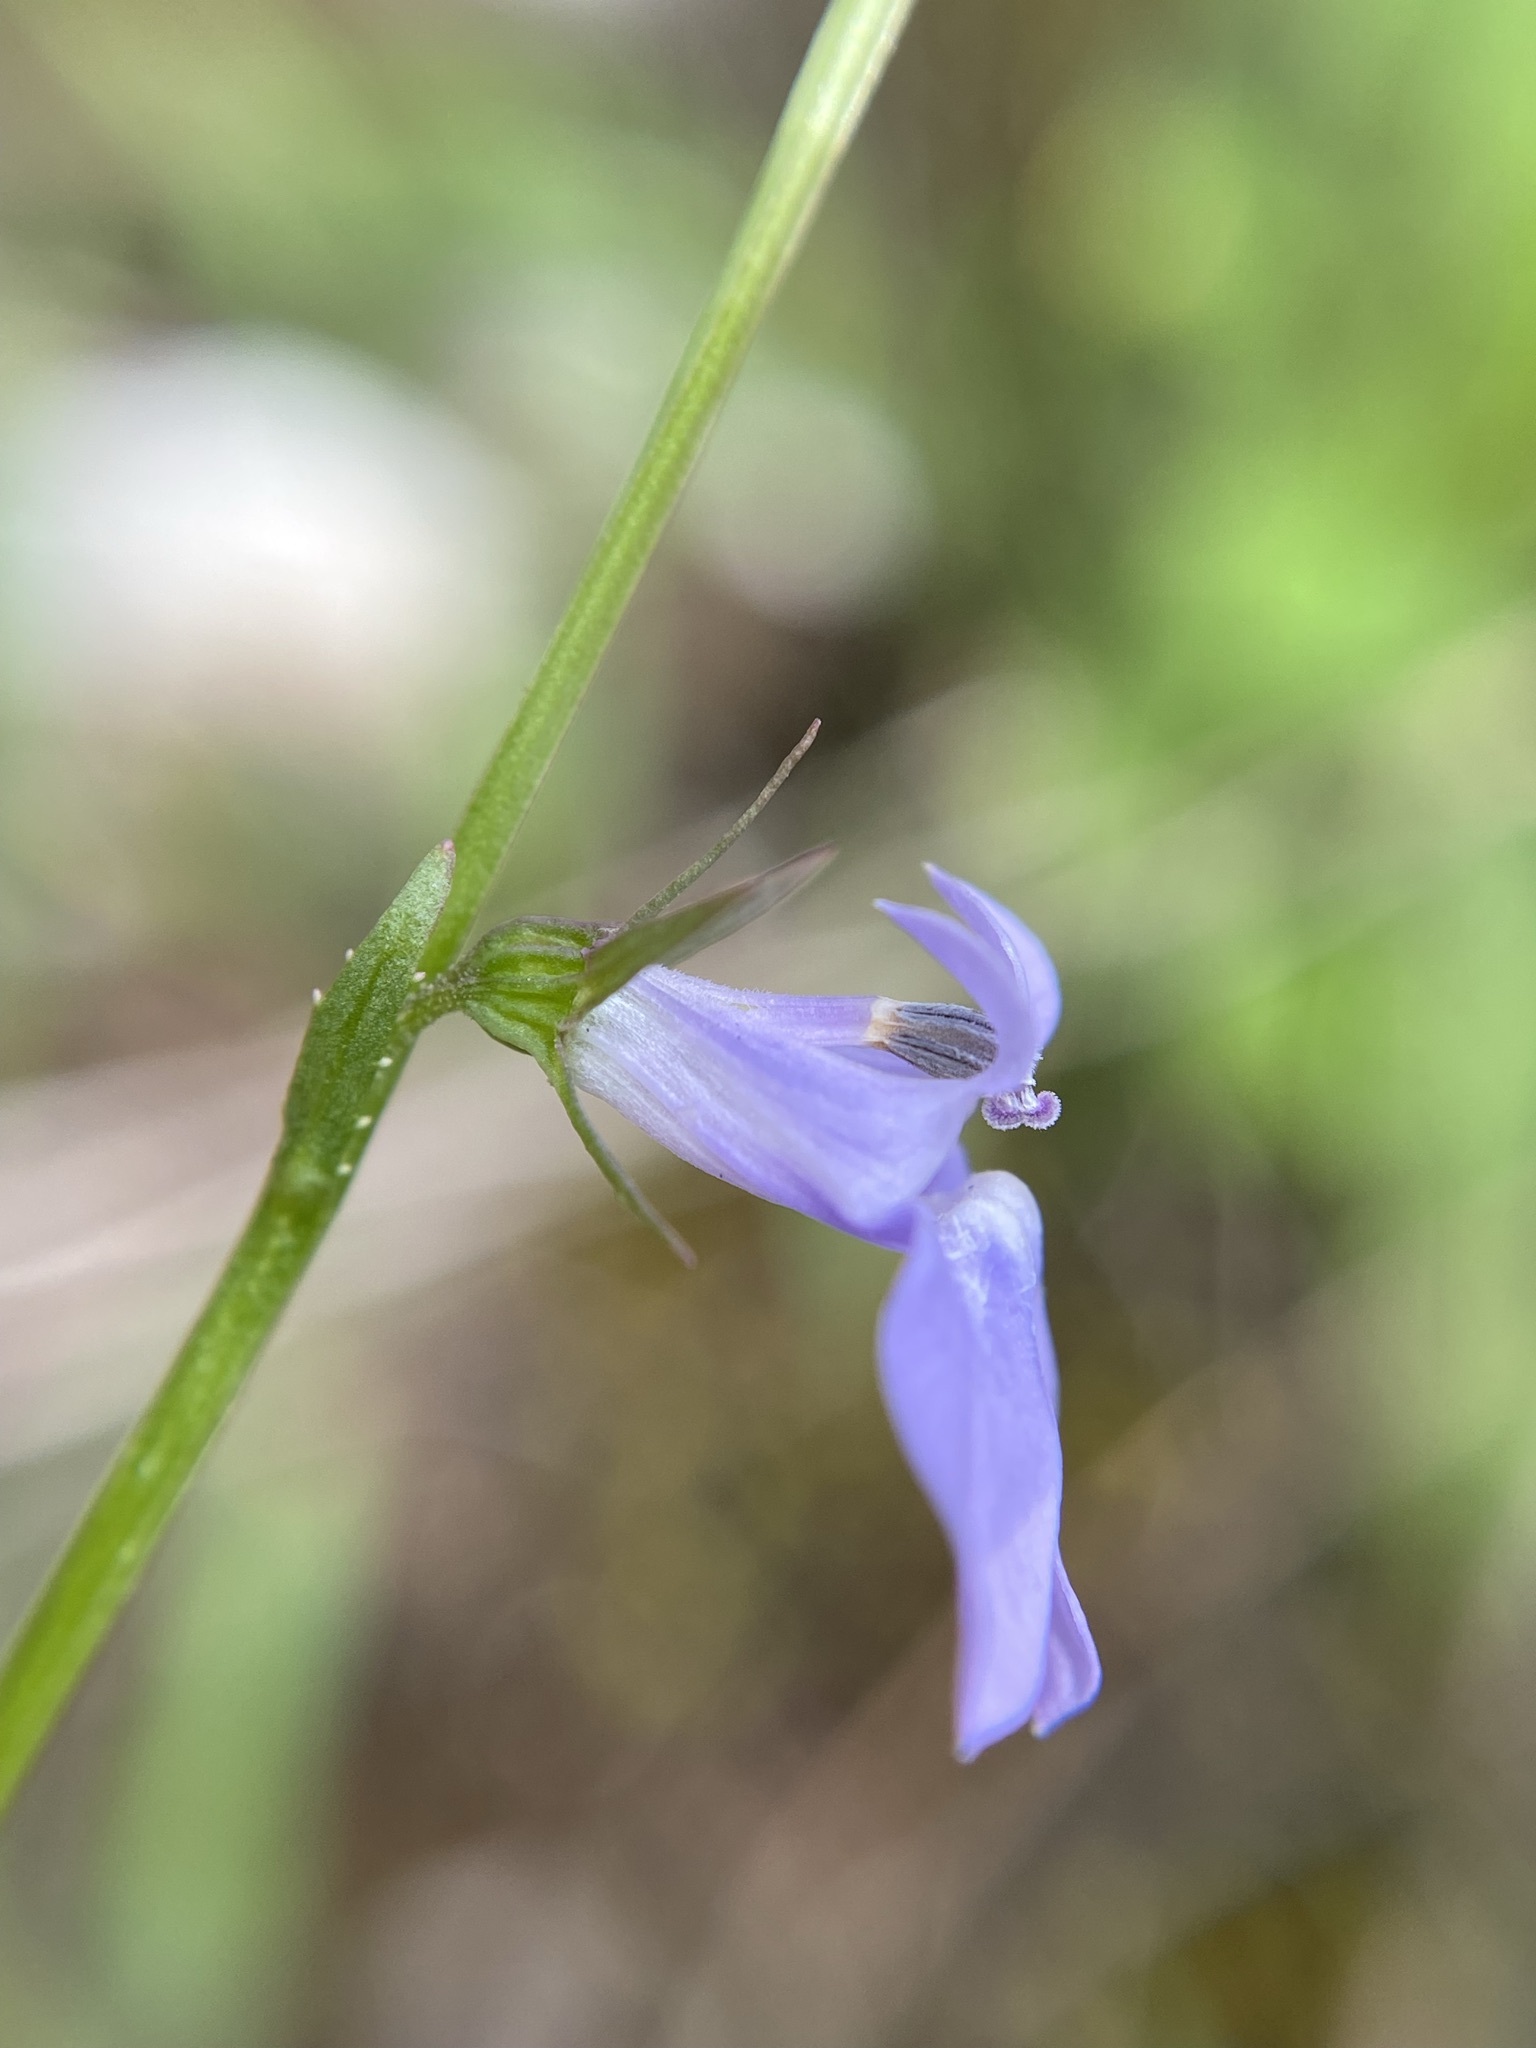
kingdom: Plantae
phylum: Tracheophyta
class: Magnoliopsida
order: Asterales
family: Campanulaceae
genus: Lobelia
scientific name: Lobelia gattingeri
